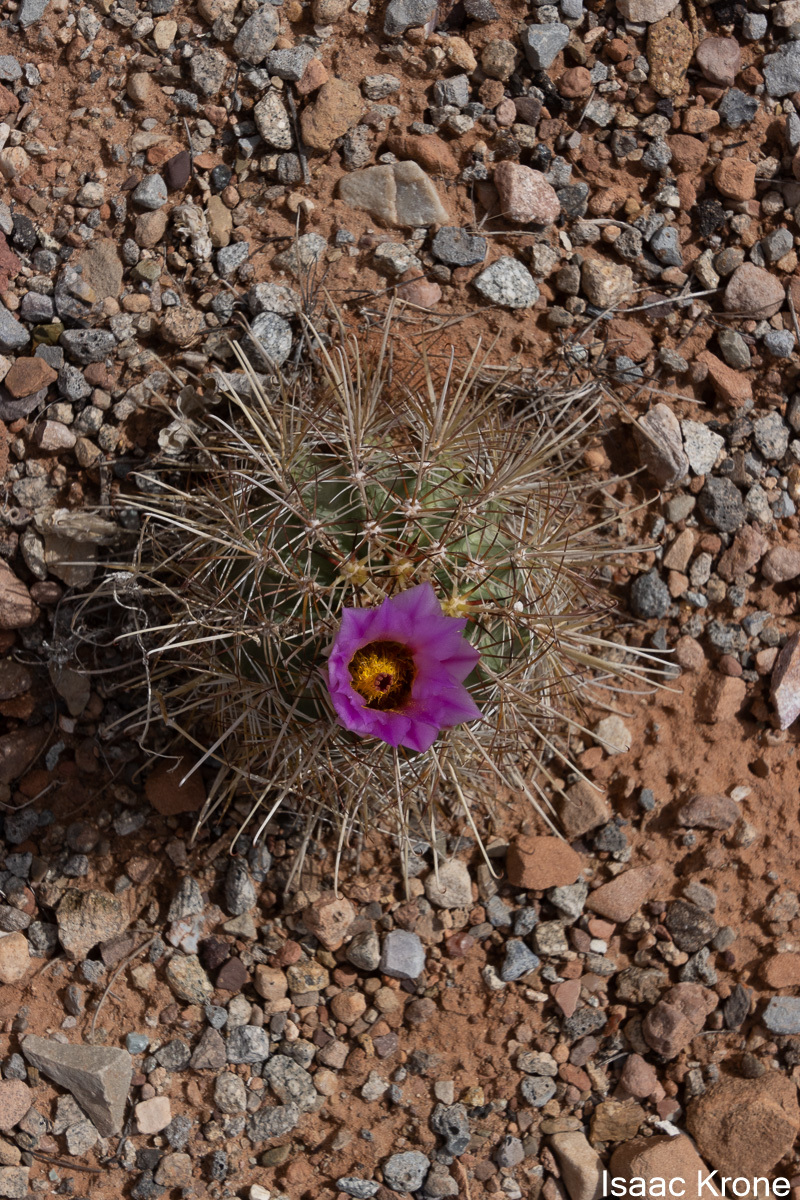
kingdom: Plantae
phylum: Tracheophyta
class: Magnoliopsida
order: Caryophyllales
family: Cactaceae
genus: Sclerocactus
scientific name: Sclerocactus parviflorus
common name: Small-flower fishhook cactus
